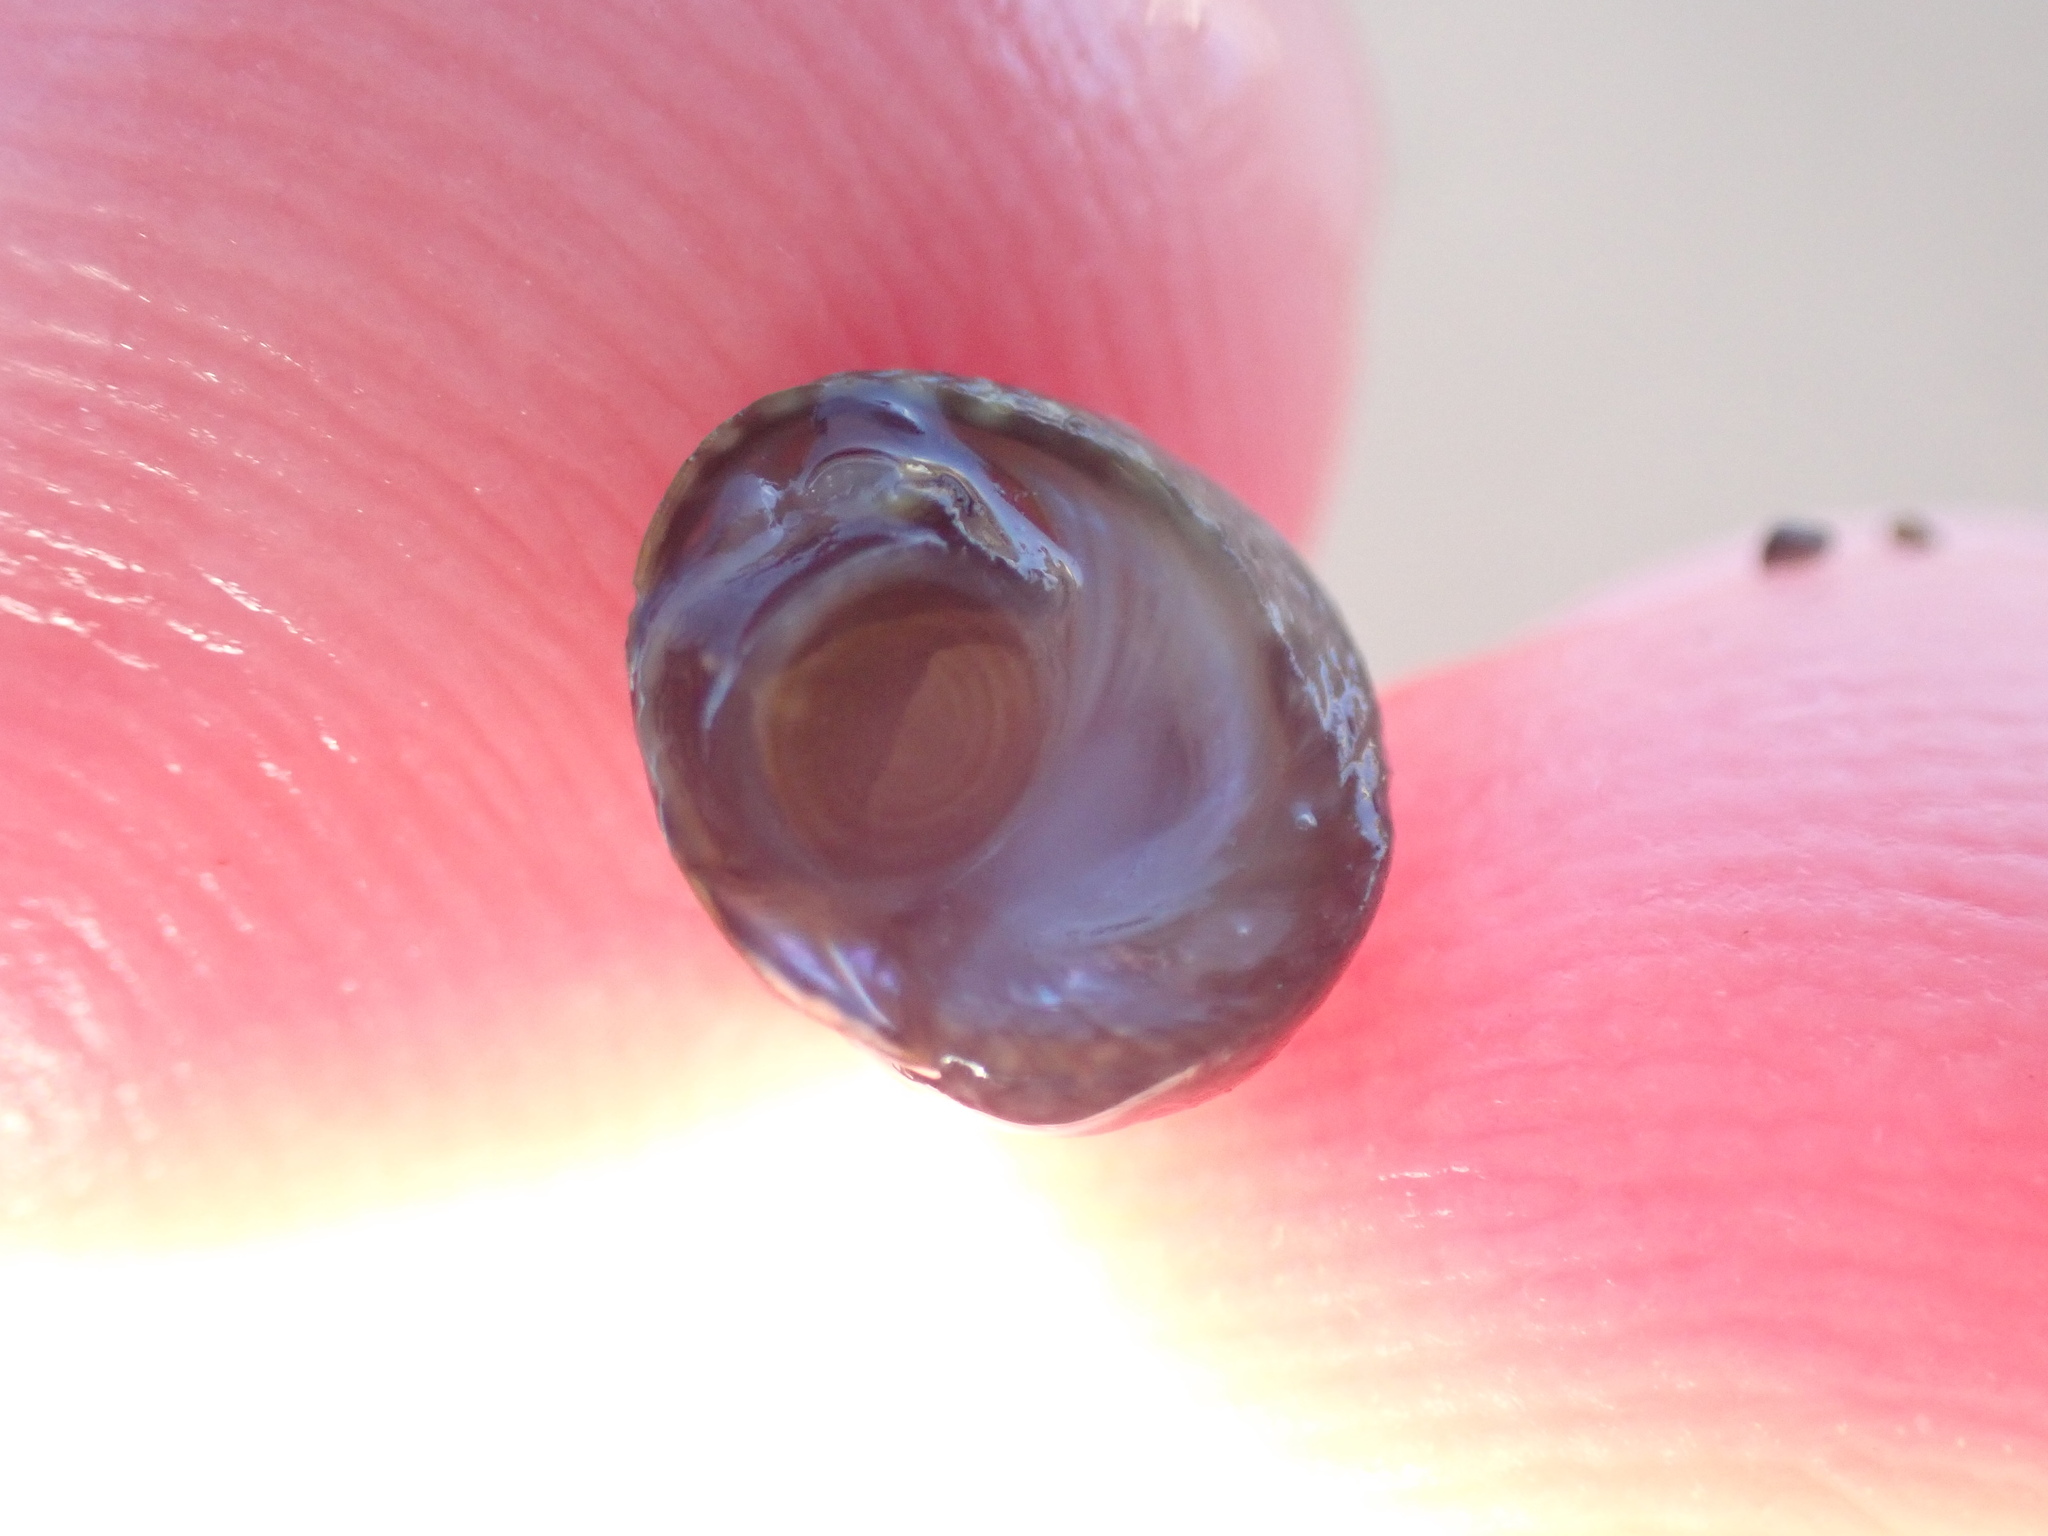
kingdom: Animalia
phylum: Mollusca
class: Gastropoda
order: Trochida
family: Trochidae
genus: Diloma
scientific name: Diloma coracinum
